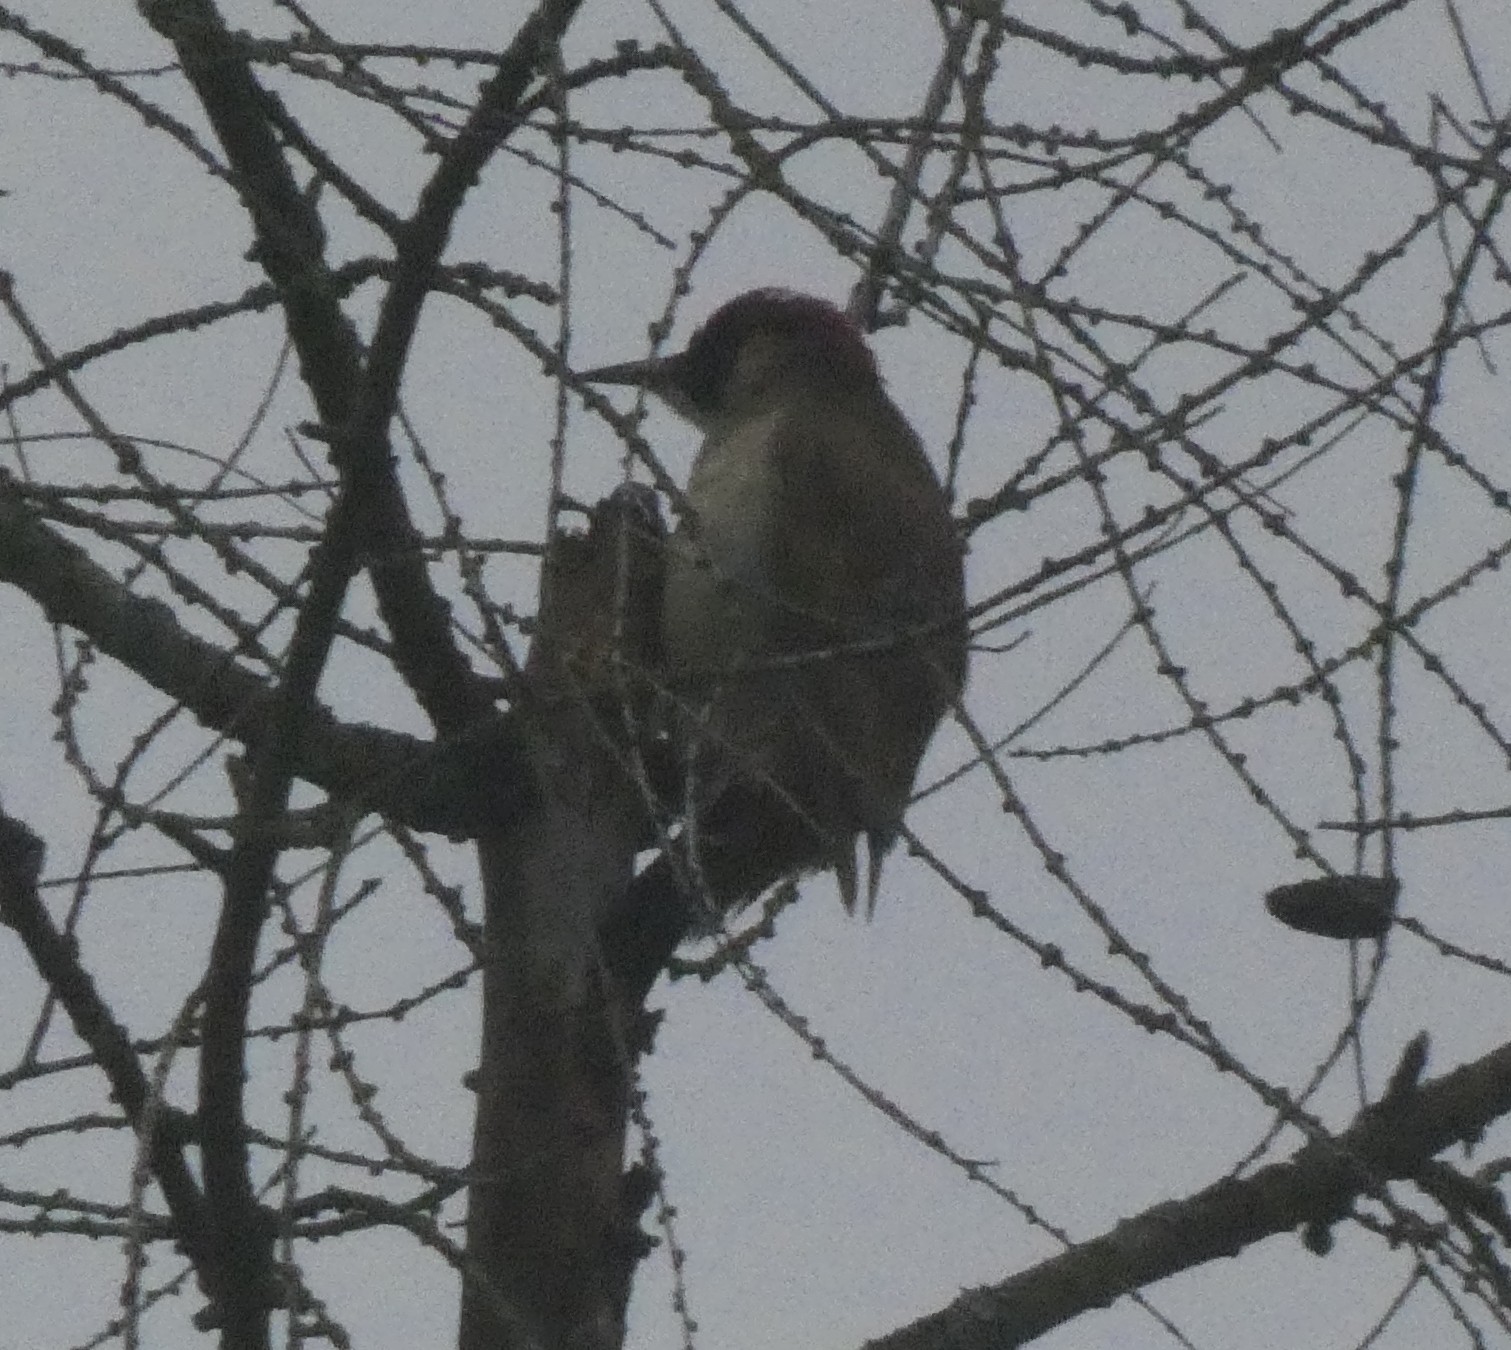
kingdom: Animalia
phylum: Chordata
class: Aves
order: Piciformes
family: Picidae
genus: Picus
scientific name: Picus viridis
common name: European green woodpecker
